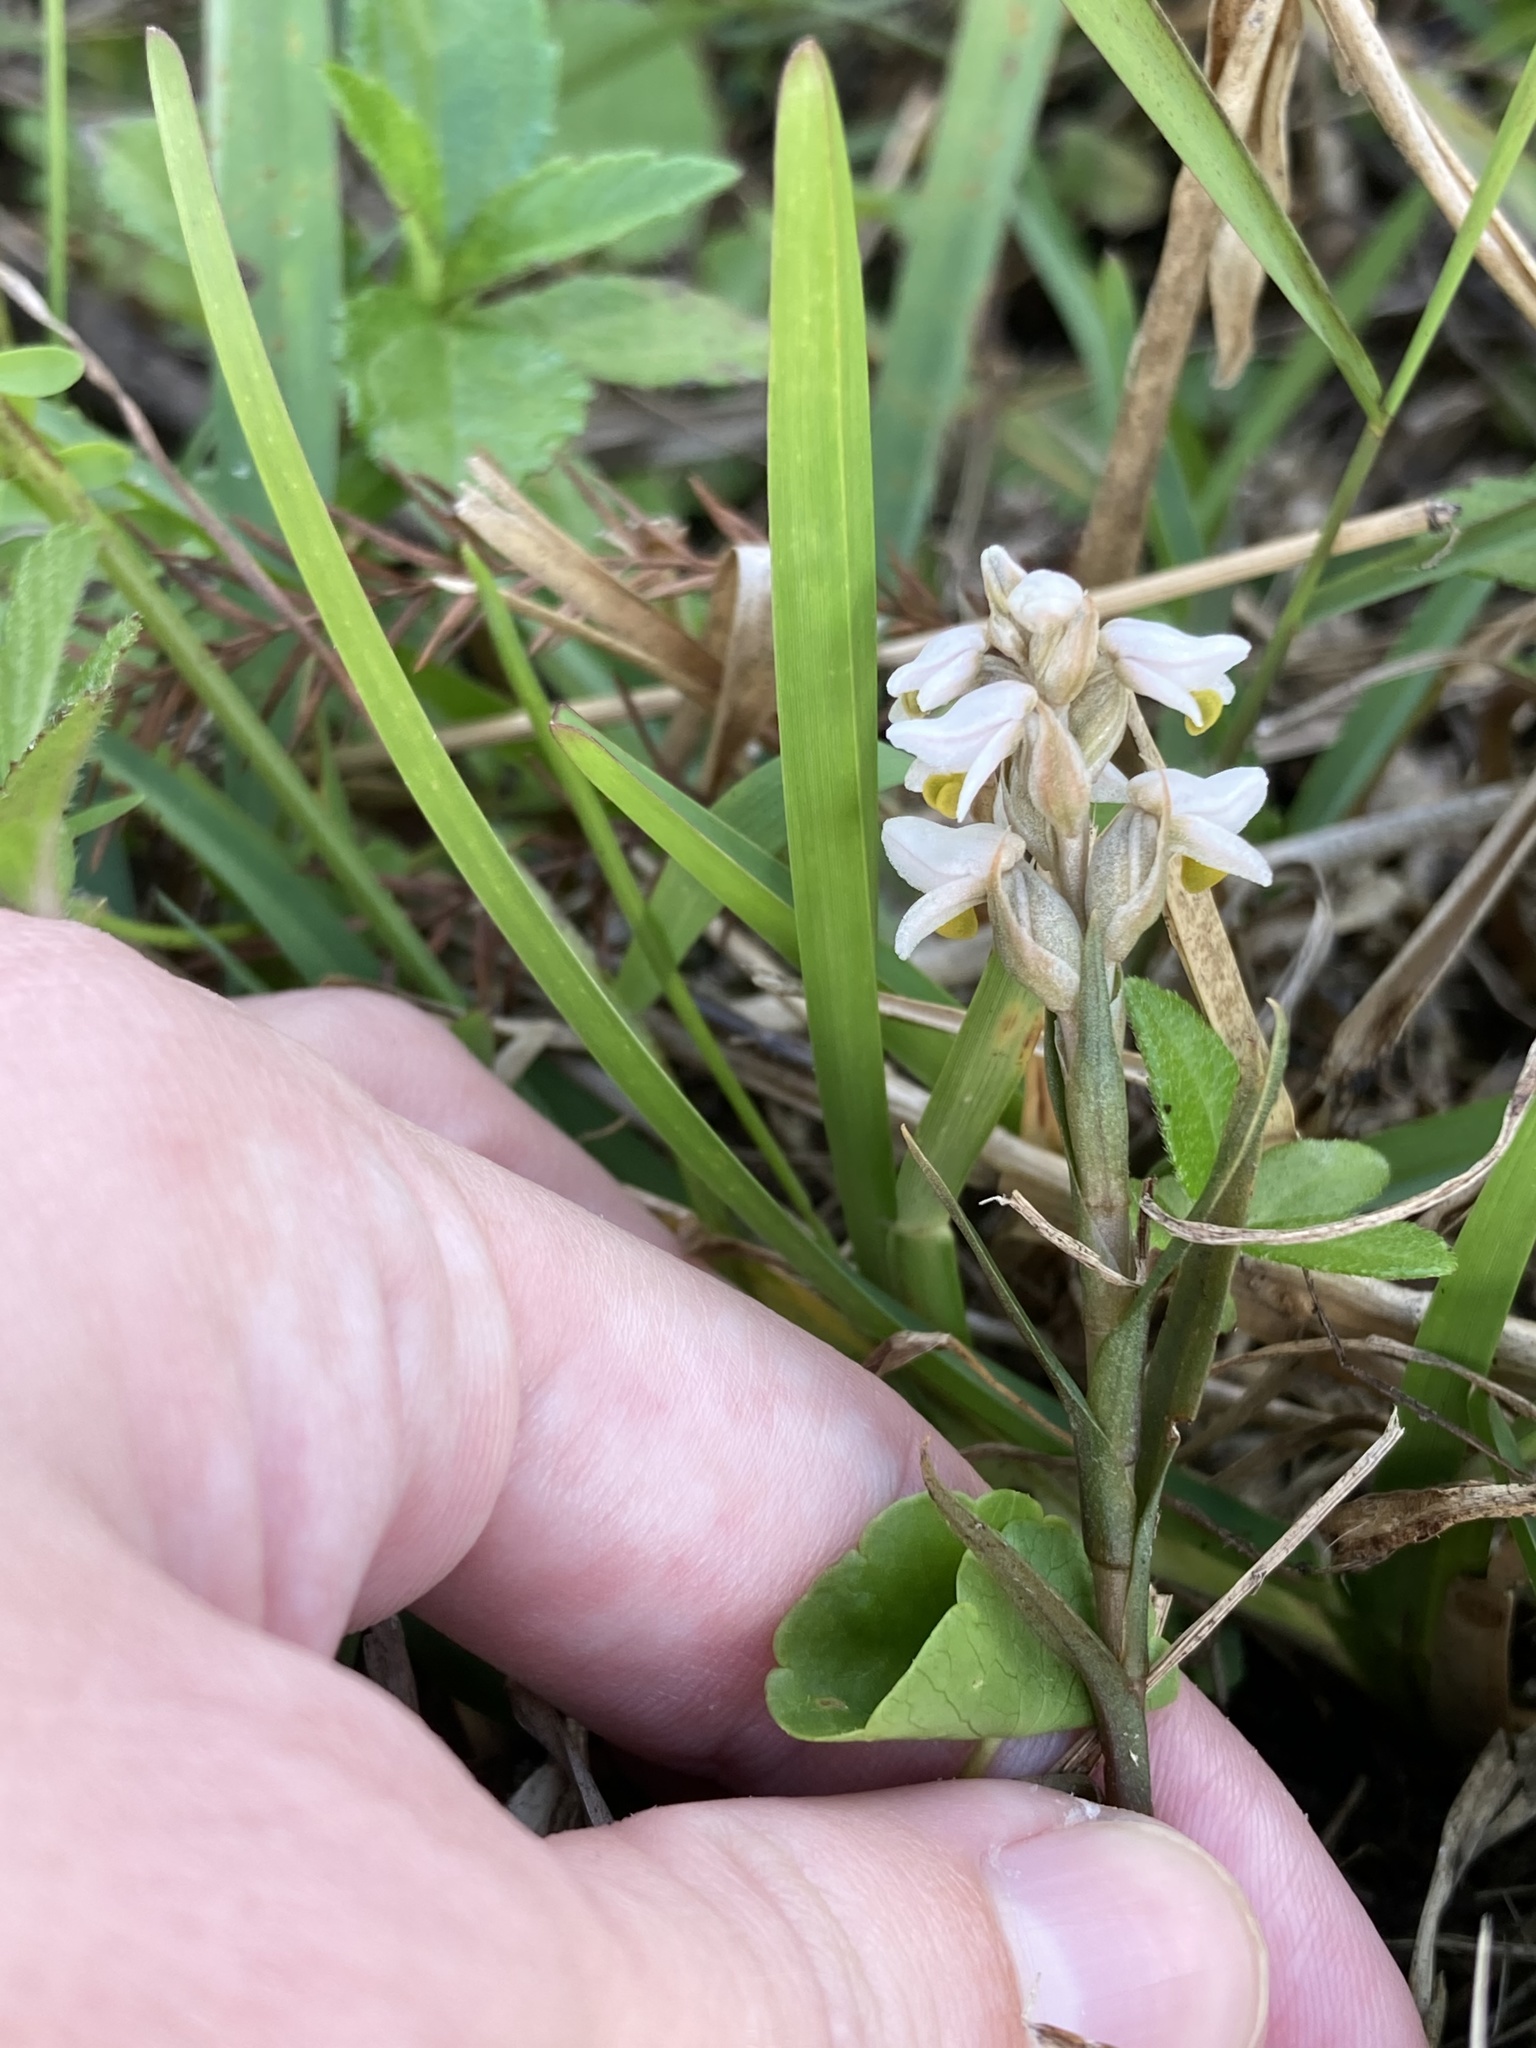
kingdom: Plantae
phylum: Tracheophyta
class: Liliopsida
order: Asparagales
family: Orchidaceae
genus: Zeuxine
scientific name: Zeuxine strateumatica
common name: Soldier's orchid
